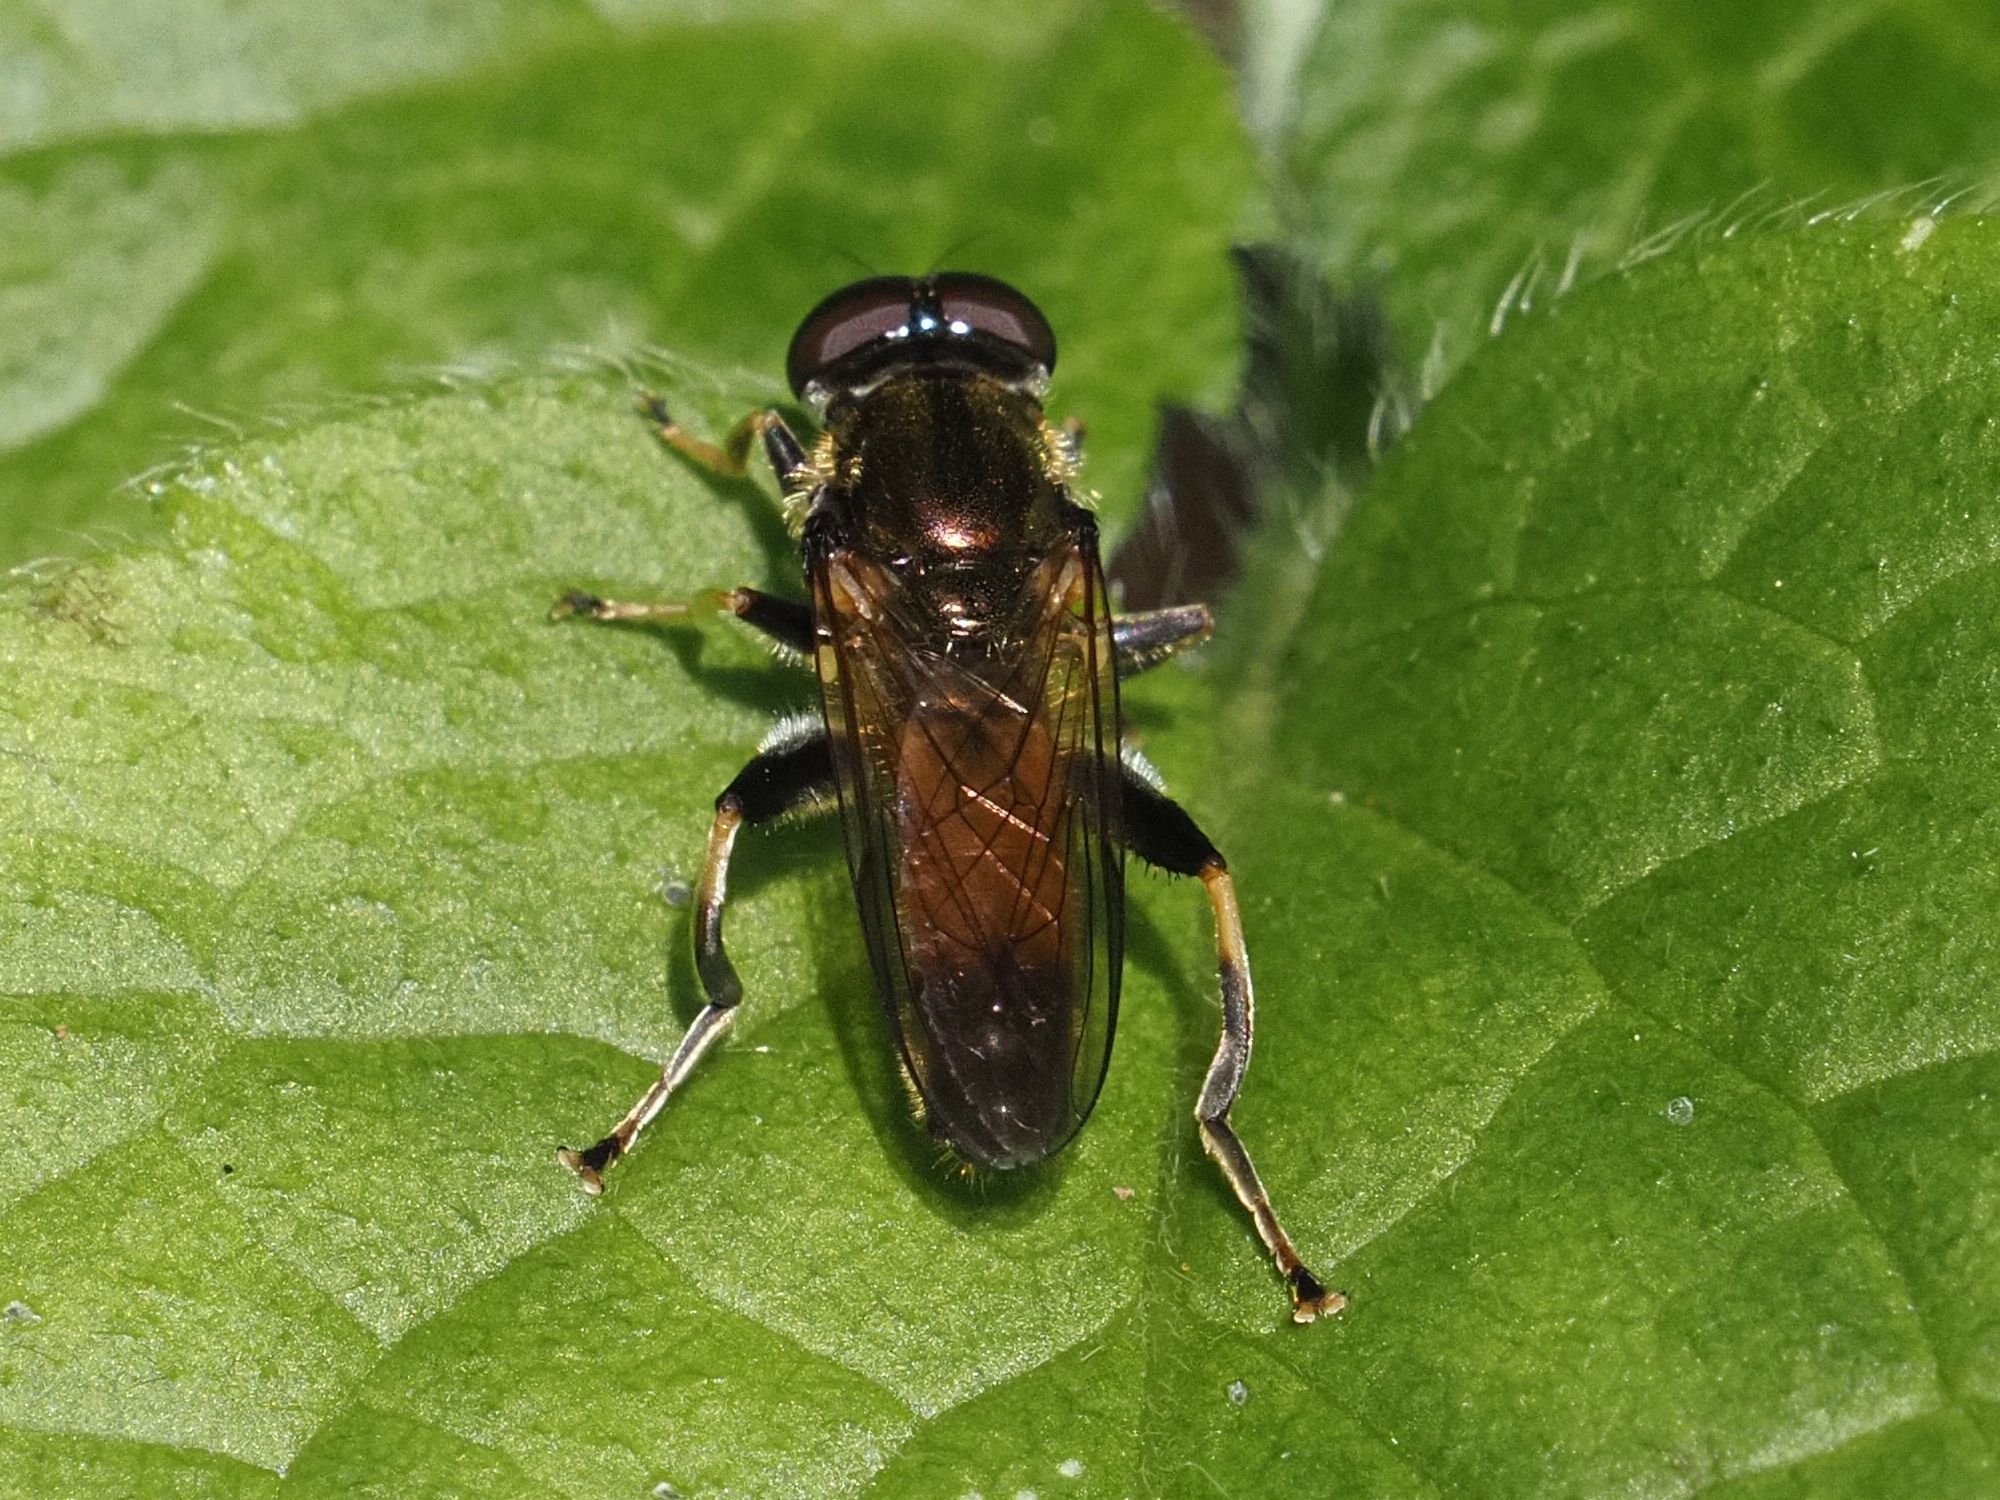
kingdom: Animalia
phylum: Arthropoda
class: Insecta
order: Diptera
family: Syrphidae
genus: Xylota
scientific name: Xylota segnis
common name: Brown-toed forest fly
